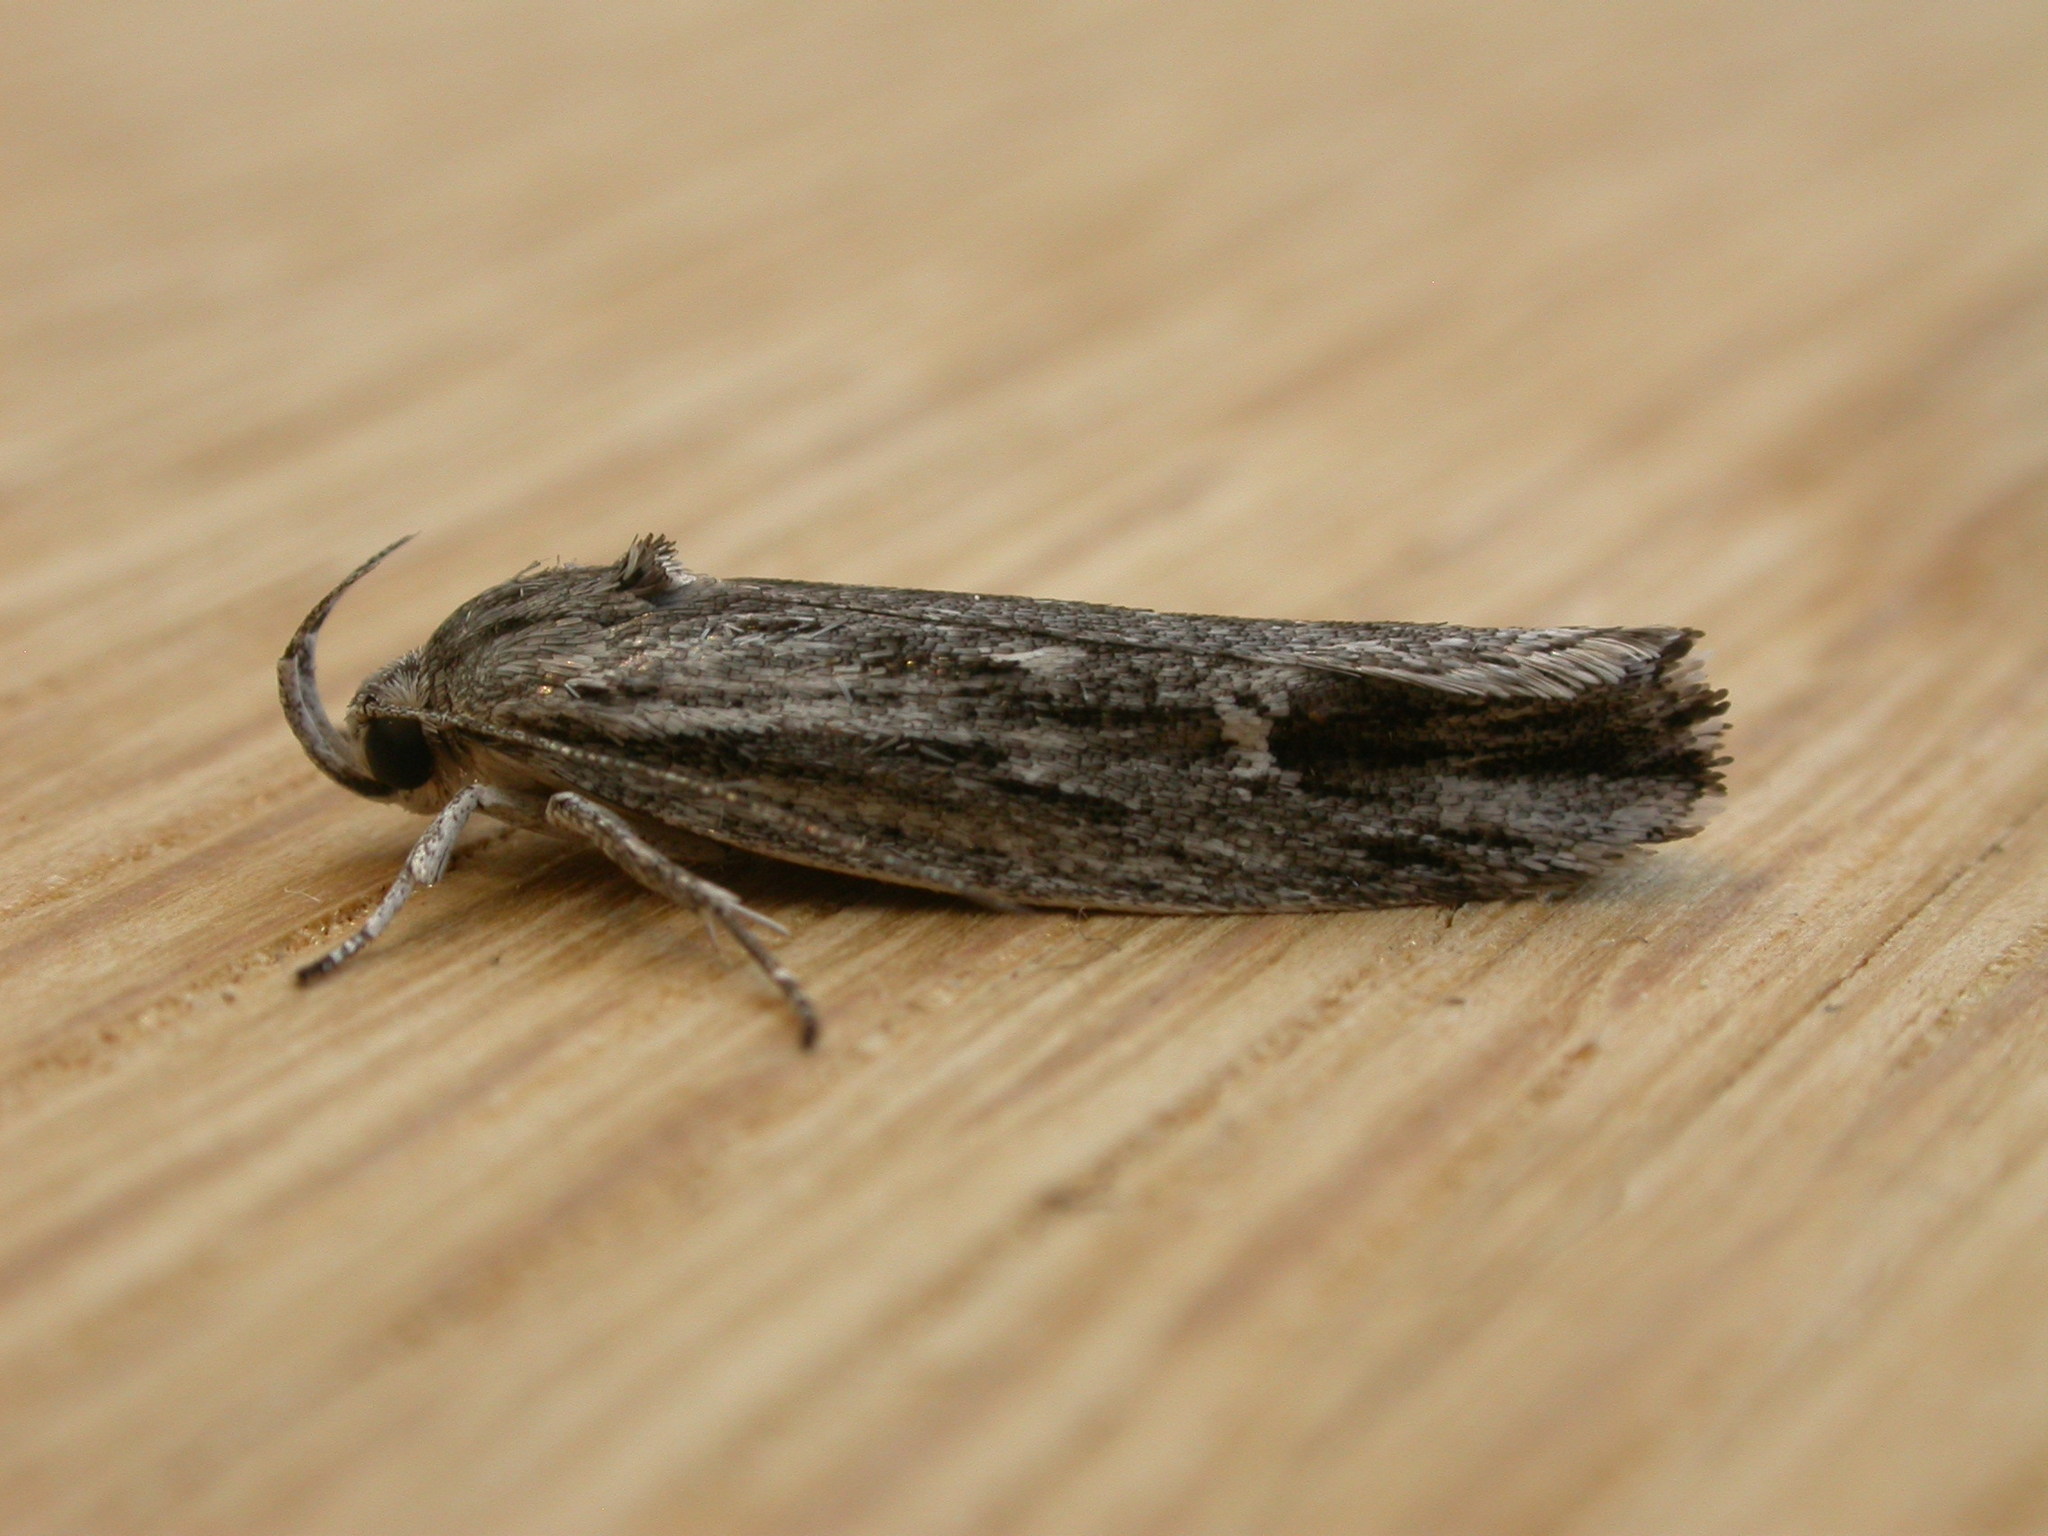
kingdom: Animalia
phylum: Arthropoda
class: Insecta
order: Lepidoptera
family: Xyloryctidae
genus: Lichenaula
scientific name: Lichenaula tuberculata
